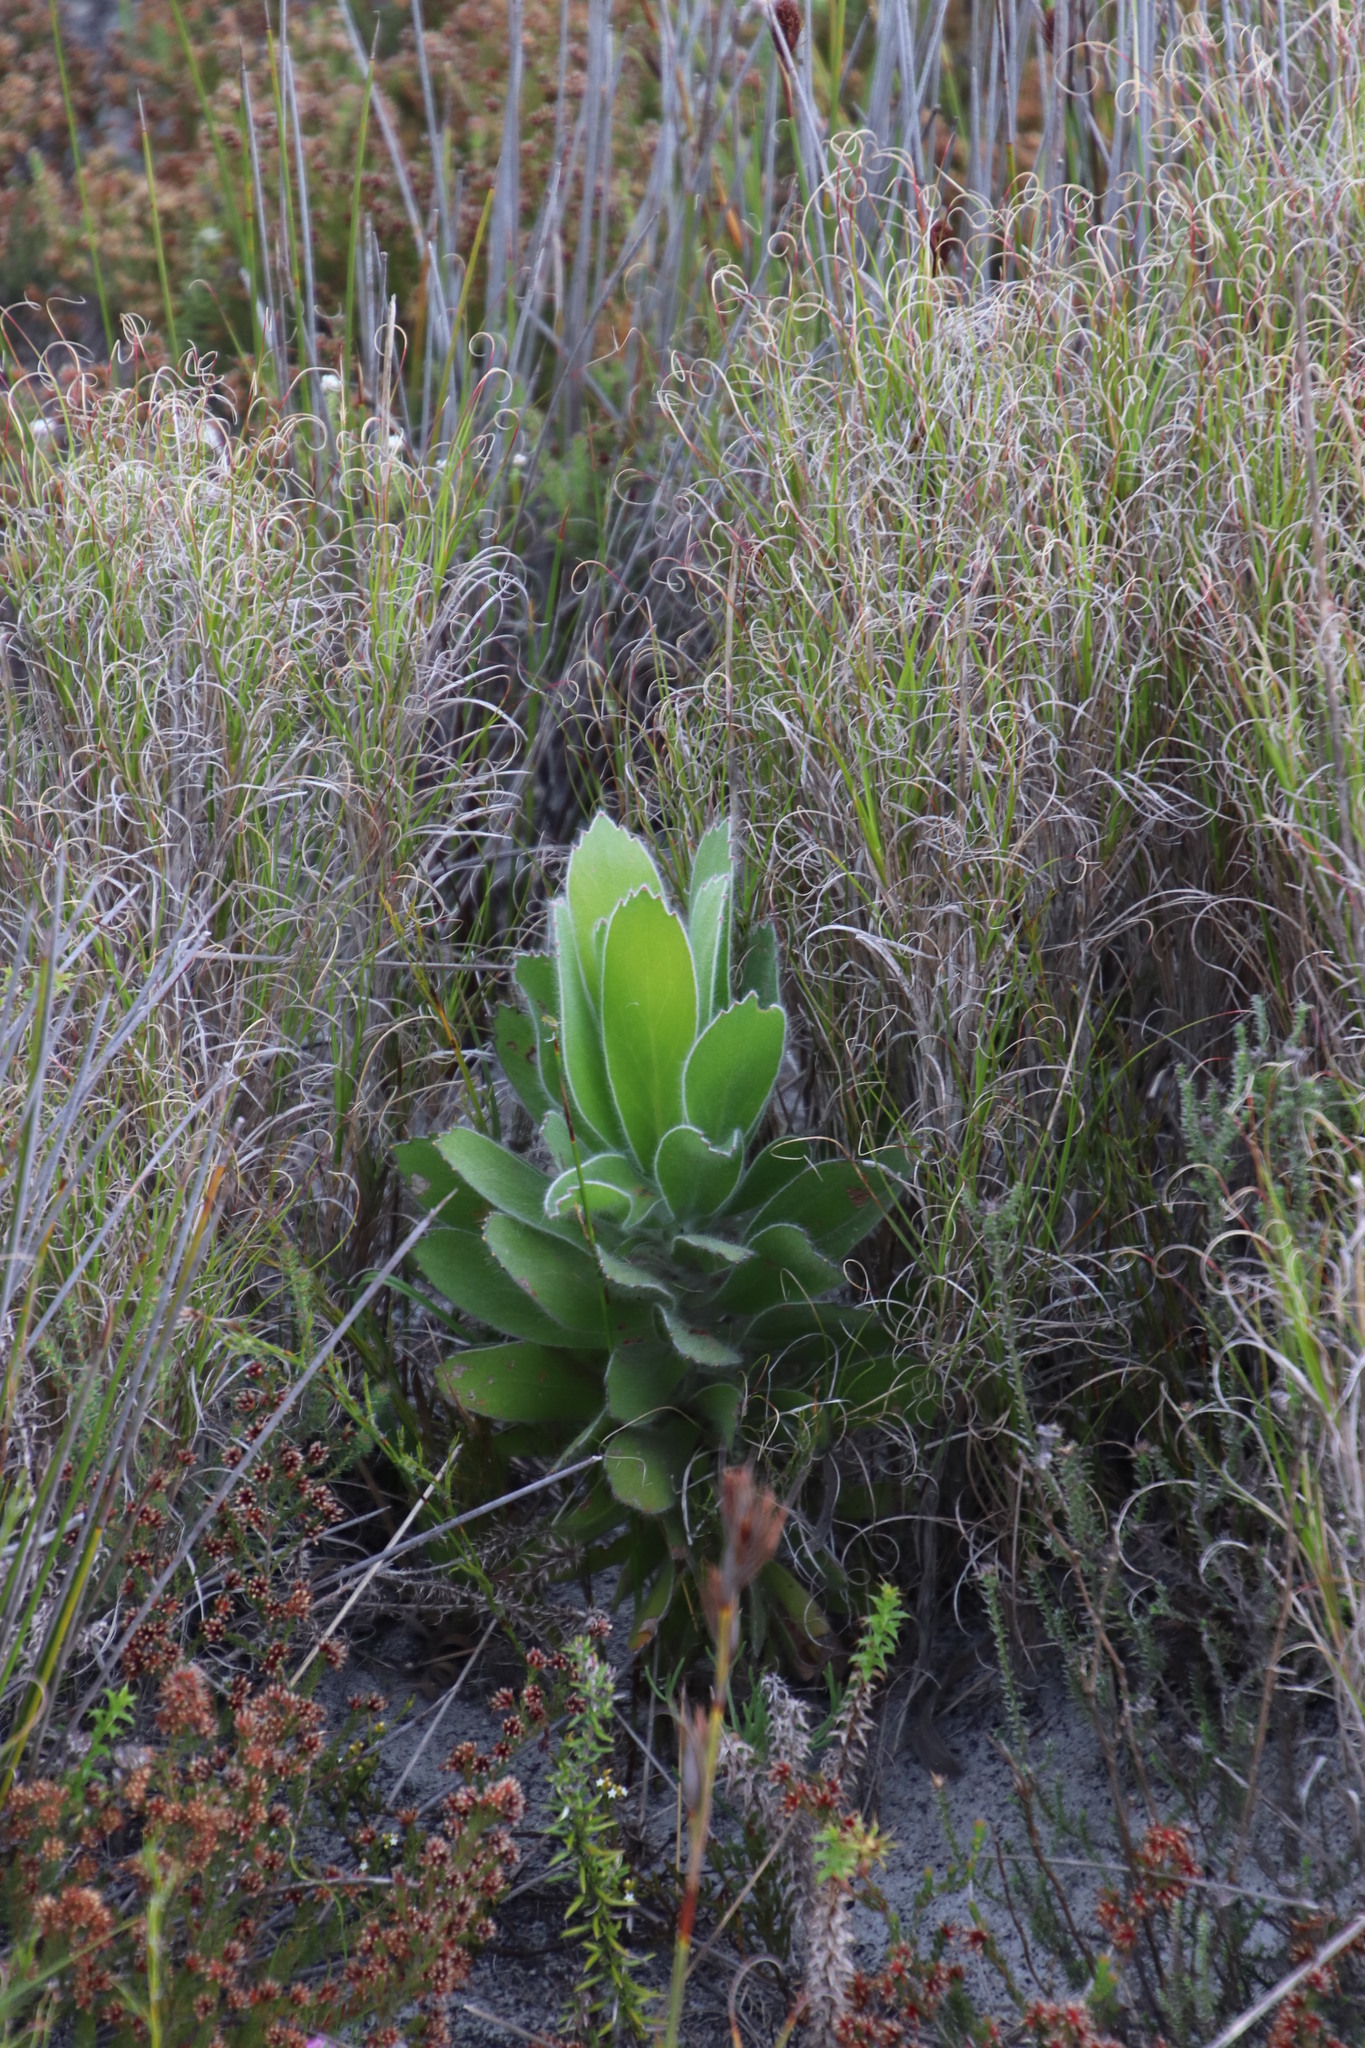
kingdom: Plantae
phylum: Tracheophyta
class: Magnoliopsida
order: Proteales
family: Proteaceae
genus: Leucospermum
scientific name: Leucospermum conocarpodendron
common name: Tree pincushion
